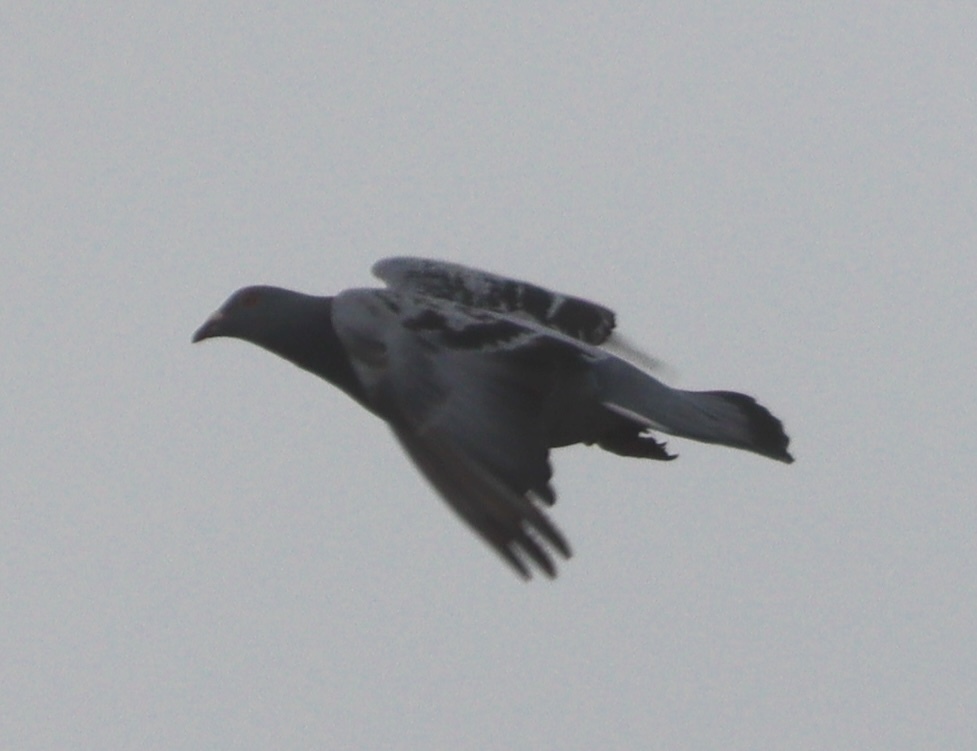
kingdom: Animalia
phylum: Chordata
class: Aves
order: Columbiformes
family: Columbidae
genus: Columba
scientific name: Columba livia
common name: Rock pigeon
